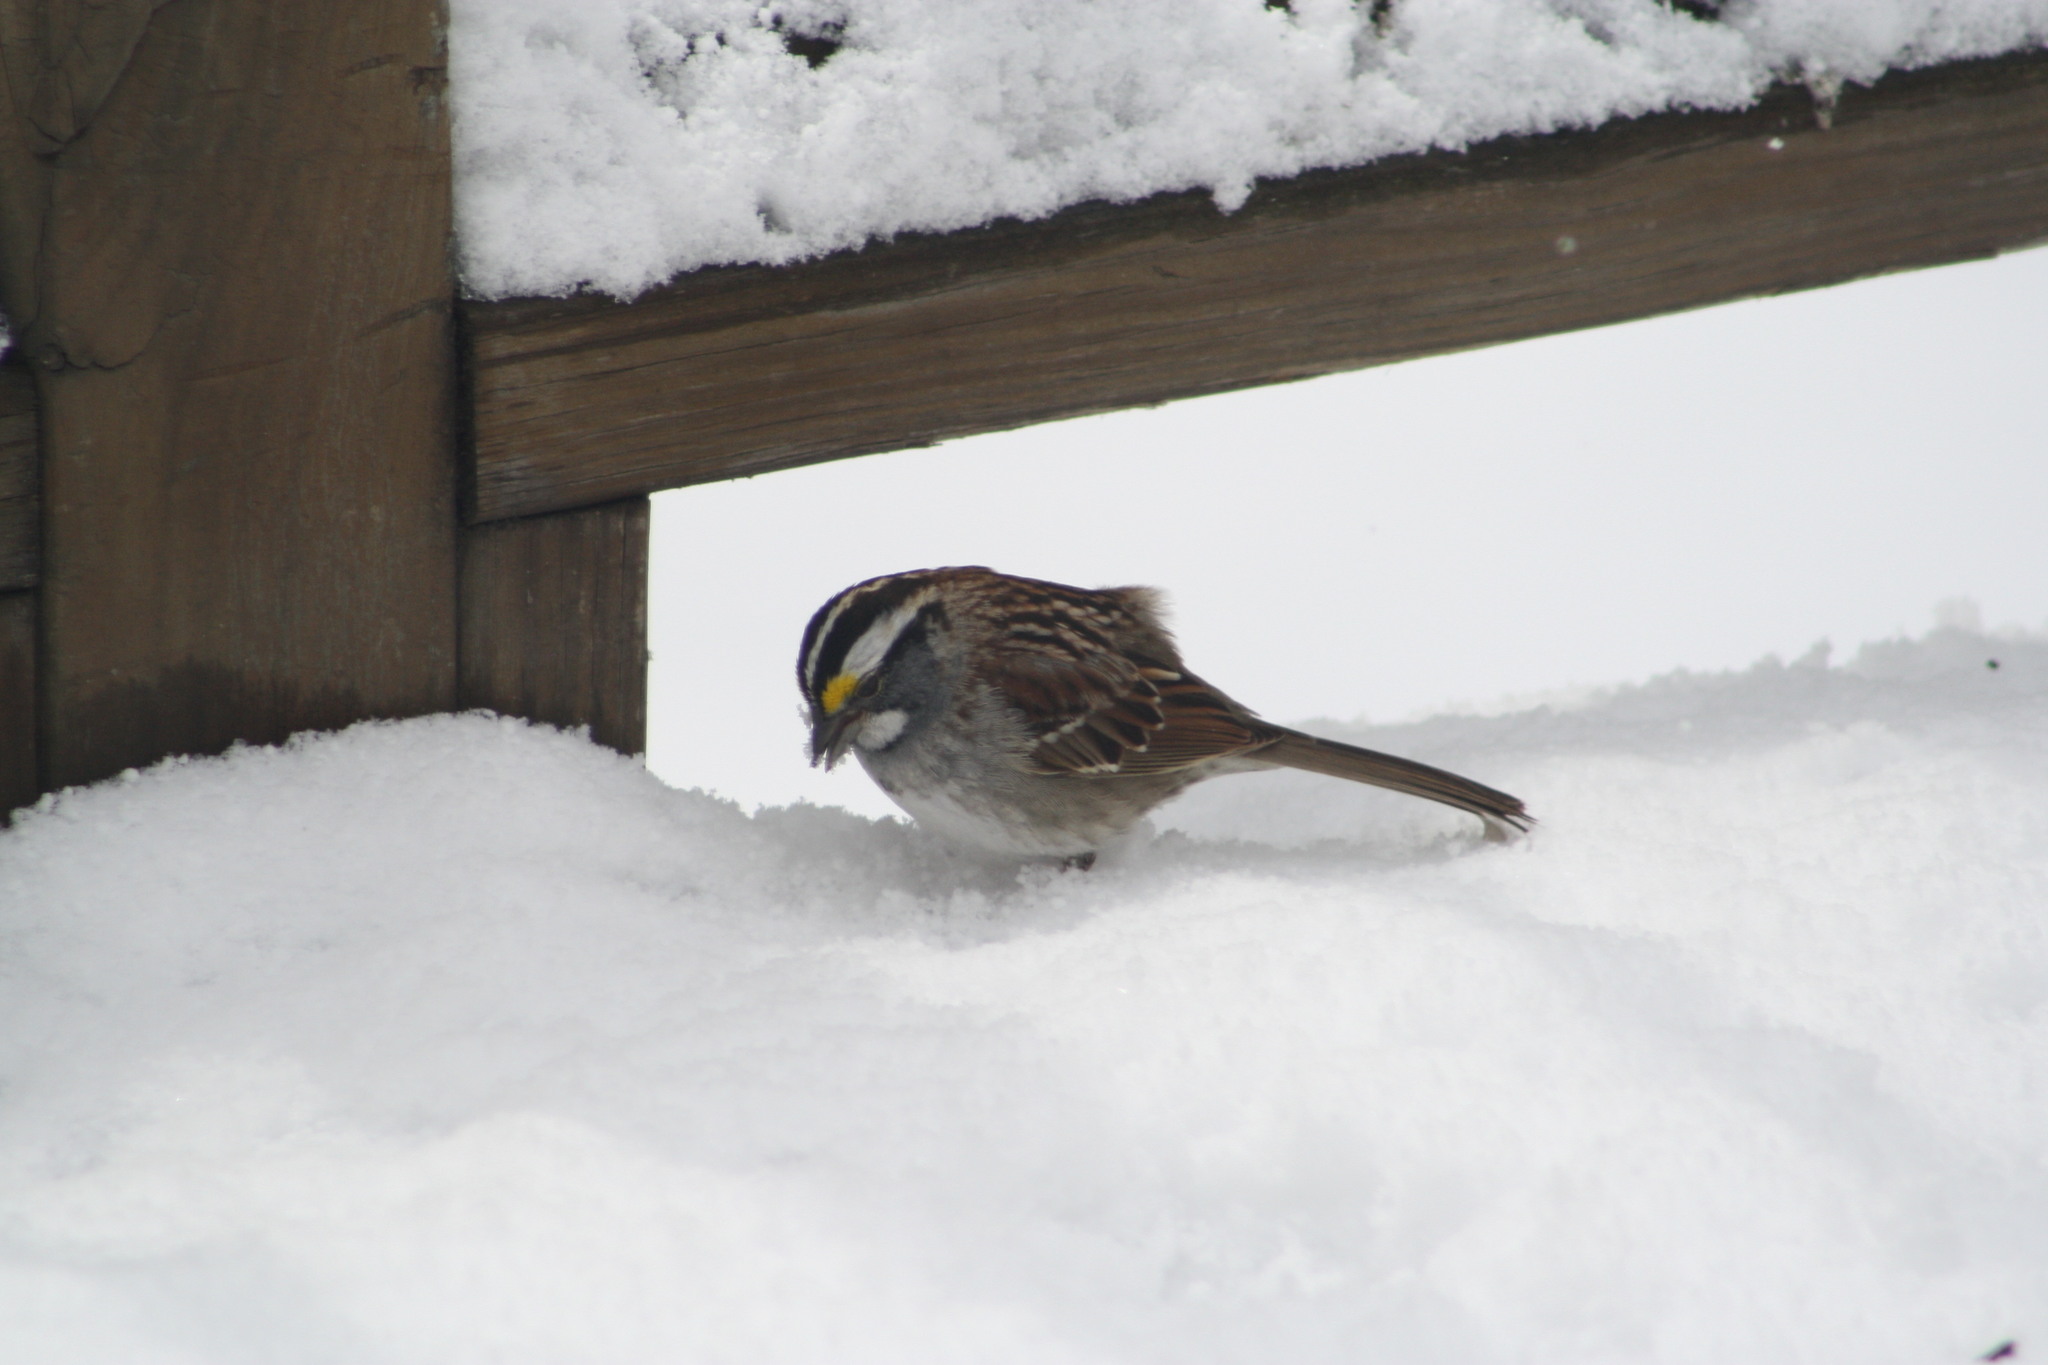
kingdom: Animalia
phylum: Chordata
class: Aves
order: Passeriformes
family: Passerellidae
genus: Zonotrichia
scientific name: Zonotrichia albicollis
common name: White-throated sparrow
